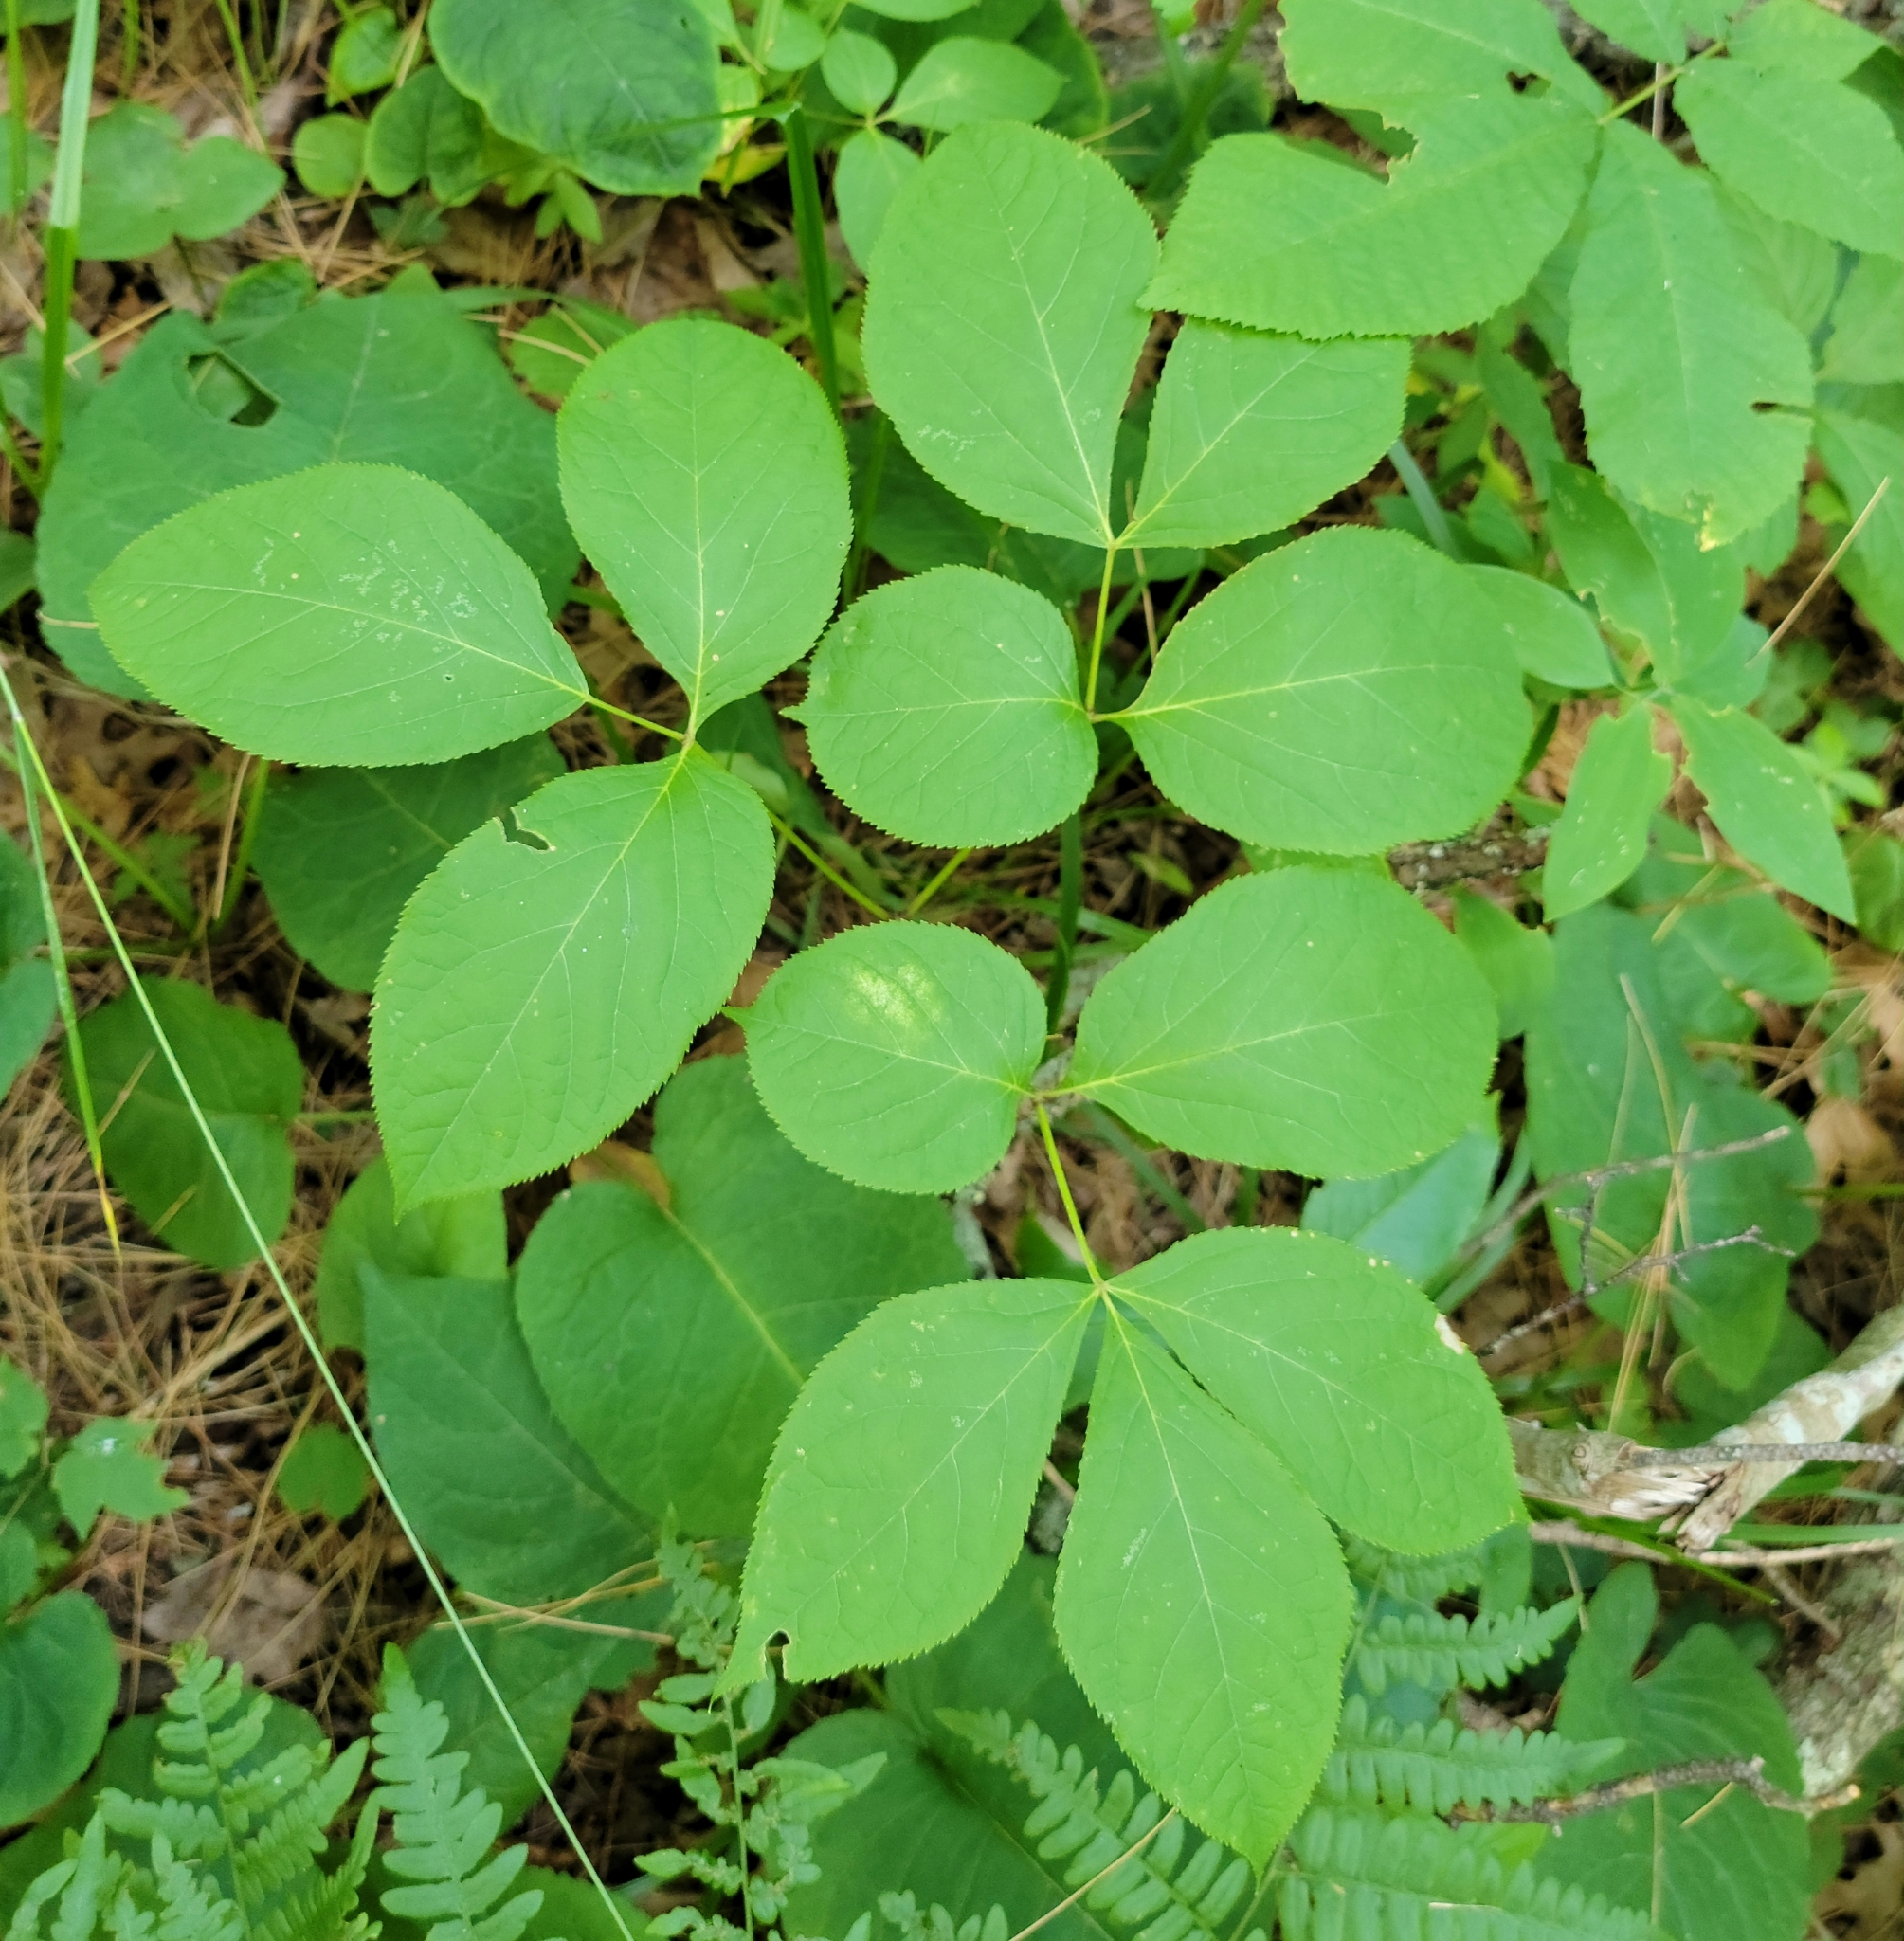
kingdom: Plantae
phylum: Tracheophyta
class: Magnoliopsida
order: Apiales
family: Araliaceae
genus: Aralia
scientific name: Aralia nudicaulis
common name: Wild sarsaparilla
